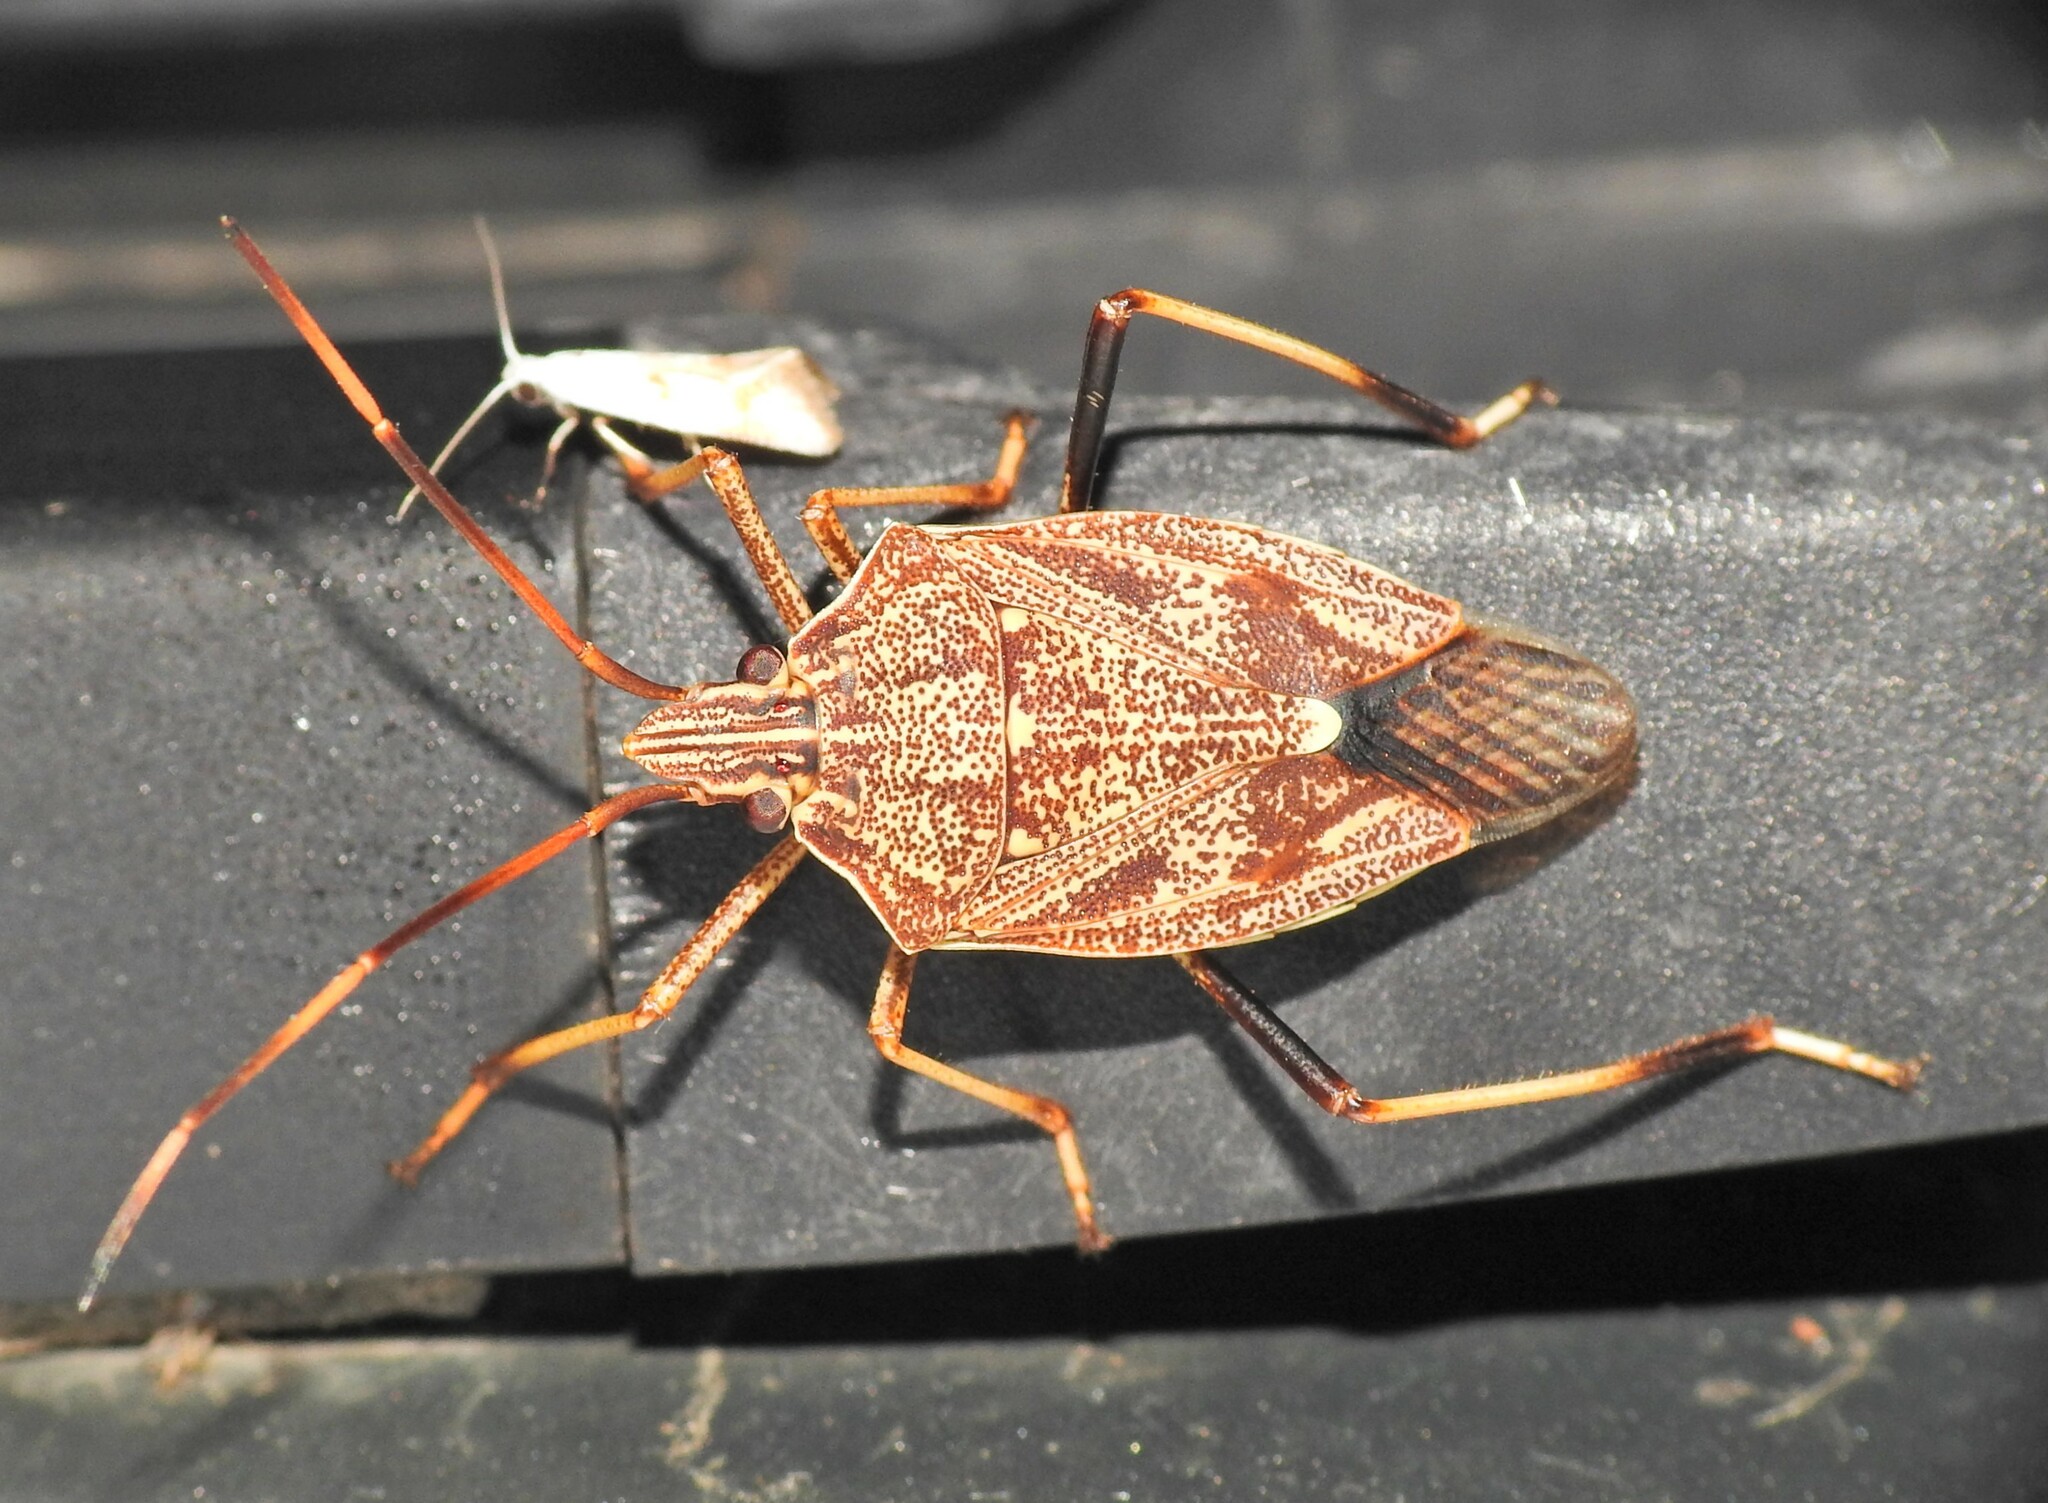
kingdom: Animalia
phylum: Arthropoda
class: Insecta
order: Hemiptera
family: Pentatomidae
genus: Poecilometis
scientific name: Poecilometis
